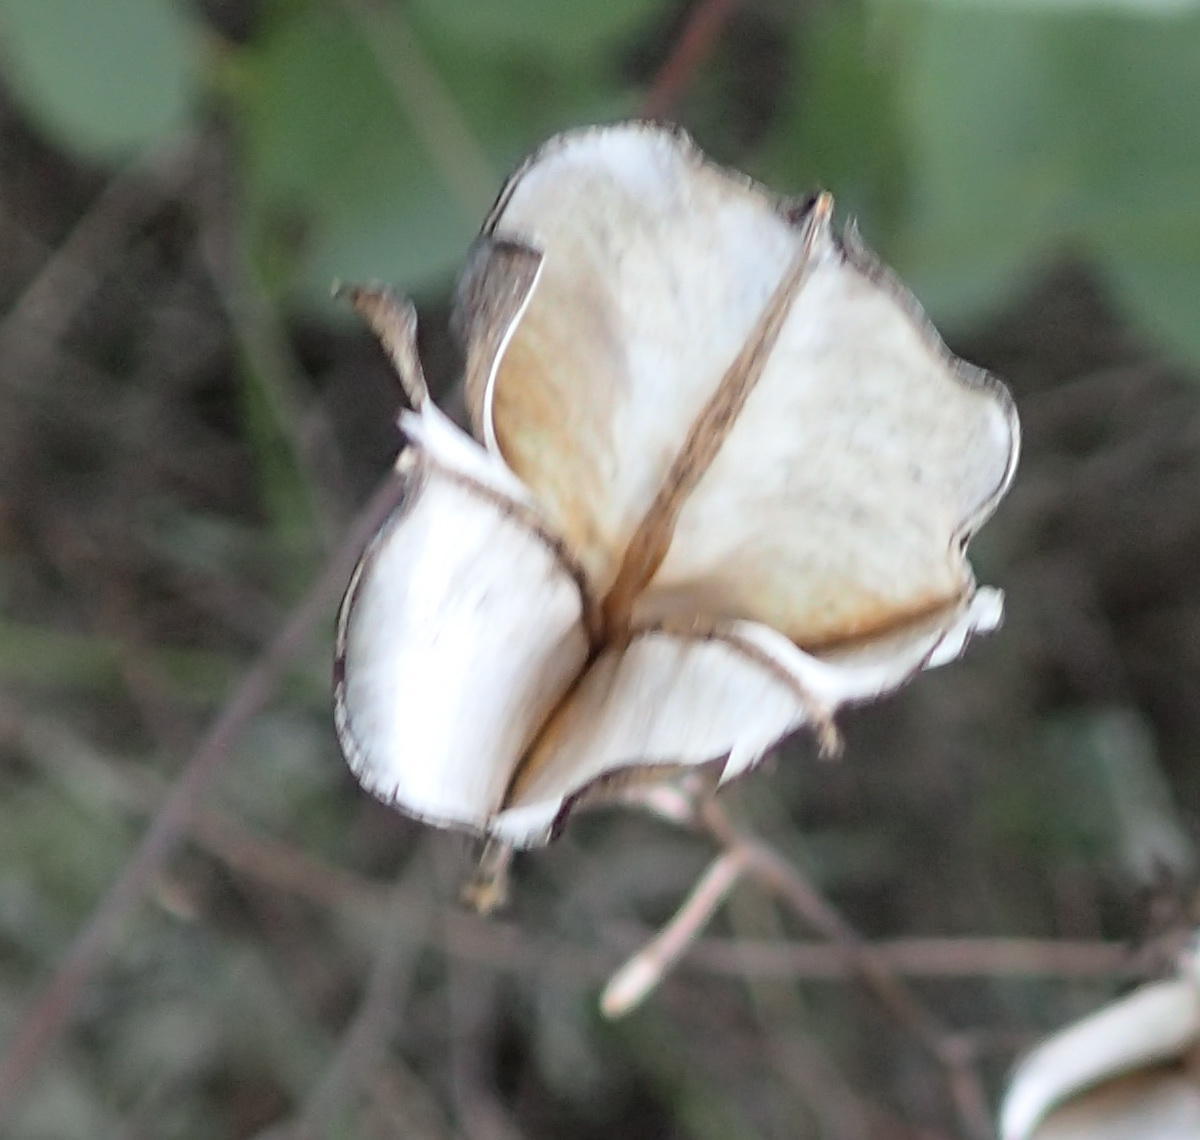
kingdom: Plantae
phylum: Tracheophyta
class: Liliopsida
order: Dioscoreales
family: Dioscoreaceae
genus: Dioscorea
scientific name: Dioscorea hemicrypta
